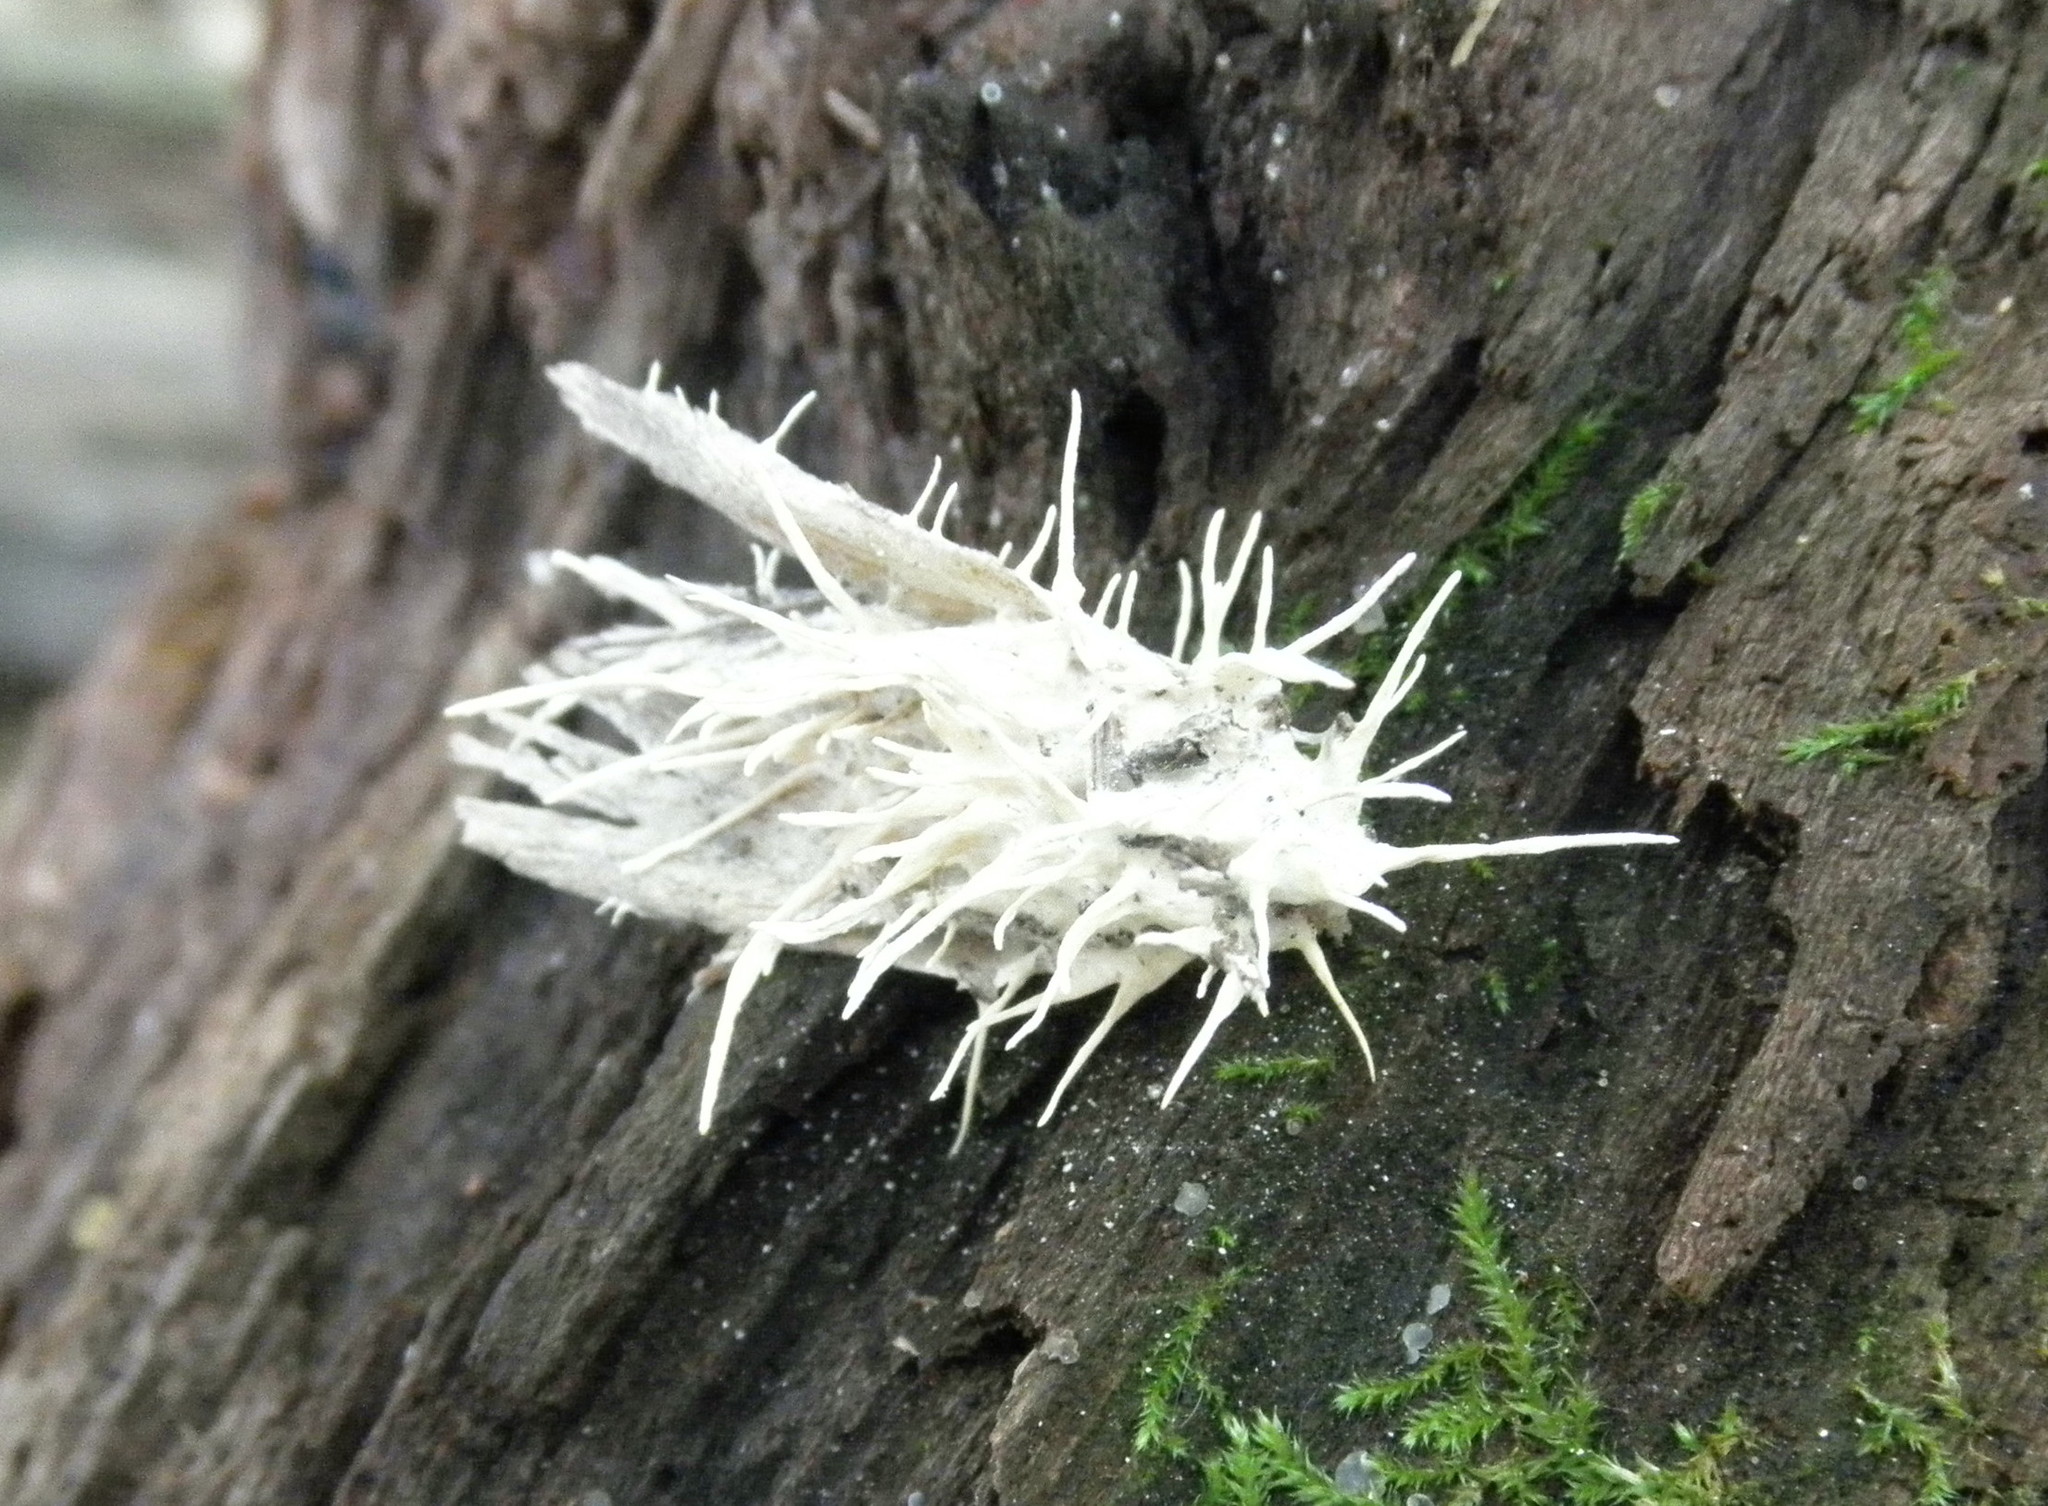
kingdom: Fungi
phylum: Ascomycota
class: Sordariomycetes
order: Hypocreales
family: Cordycipitaceae
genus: Akanthomyces
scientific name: Akanthomyces
